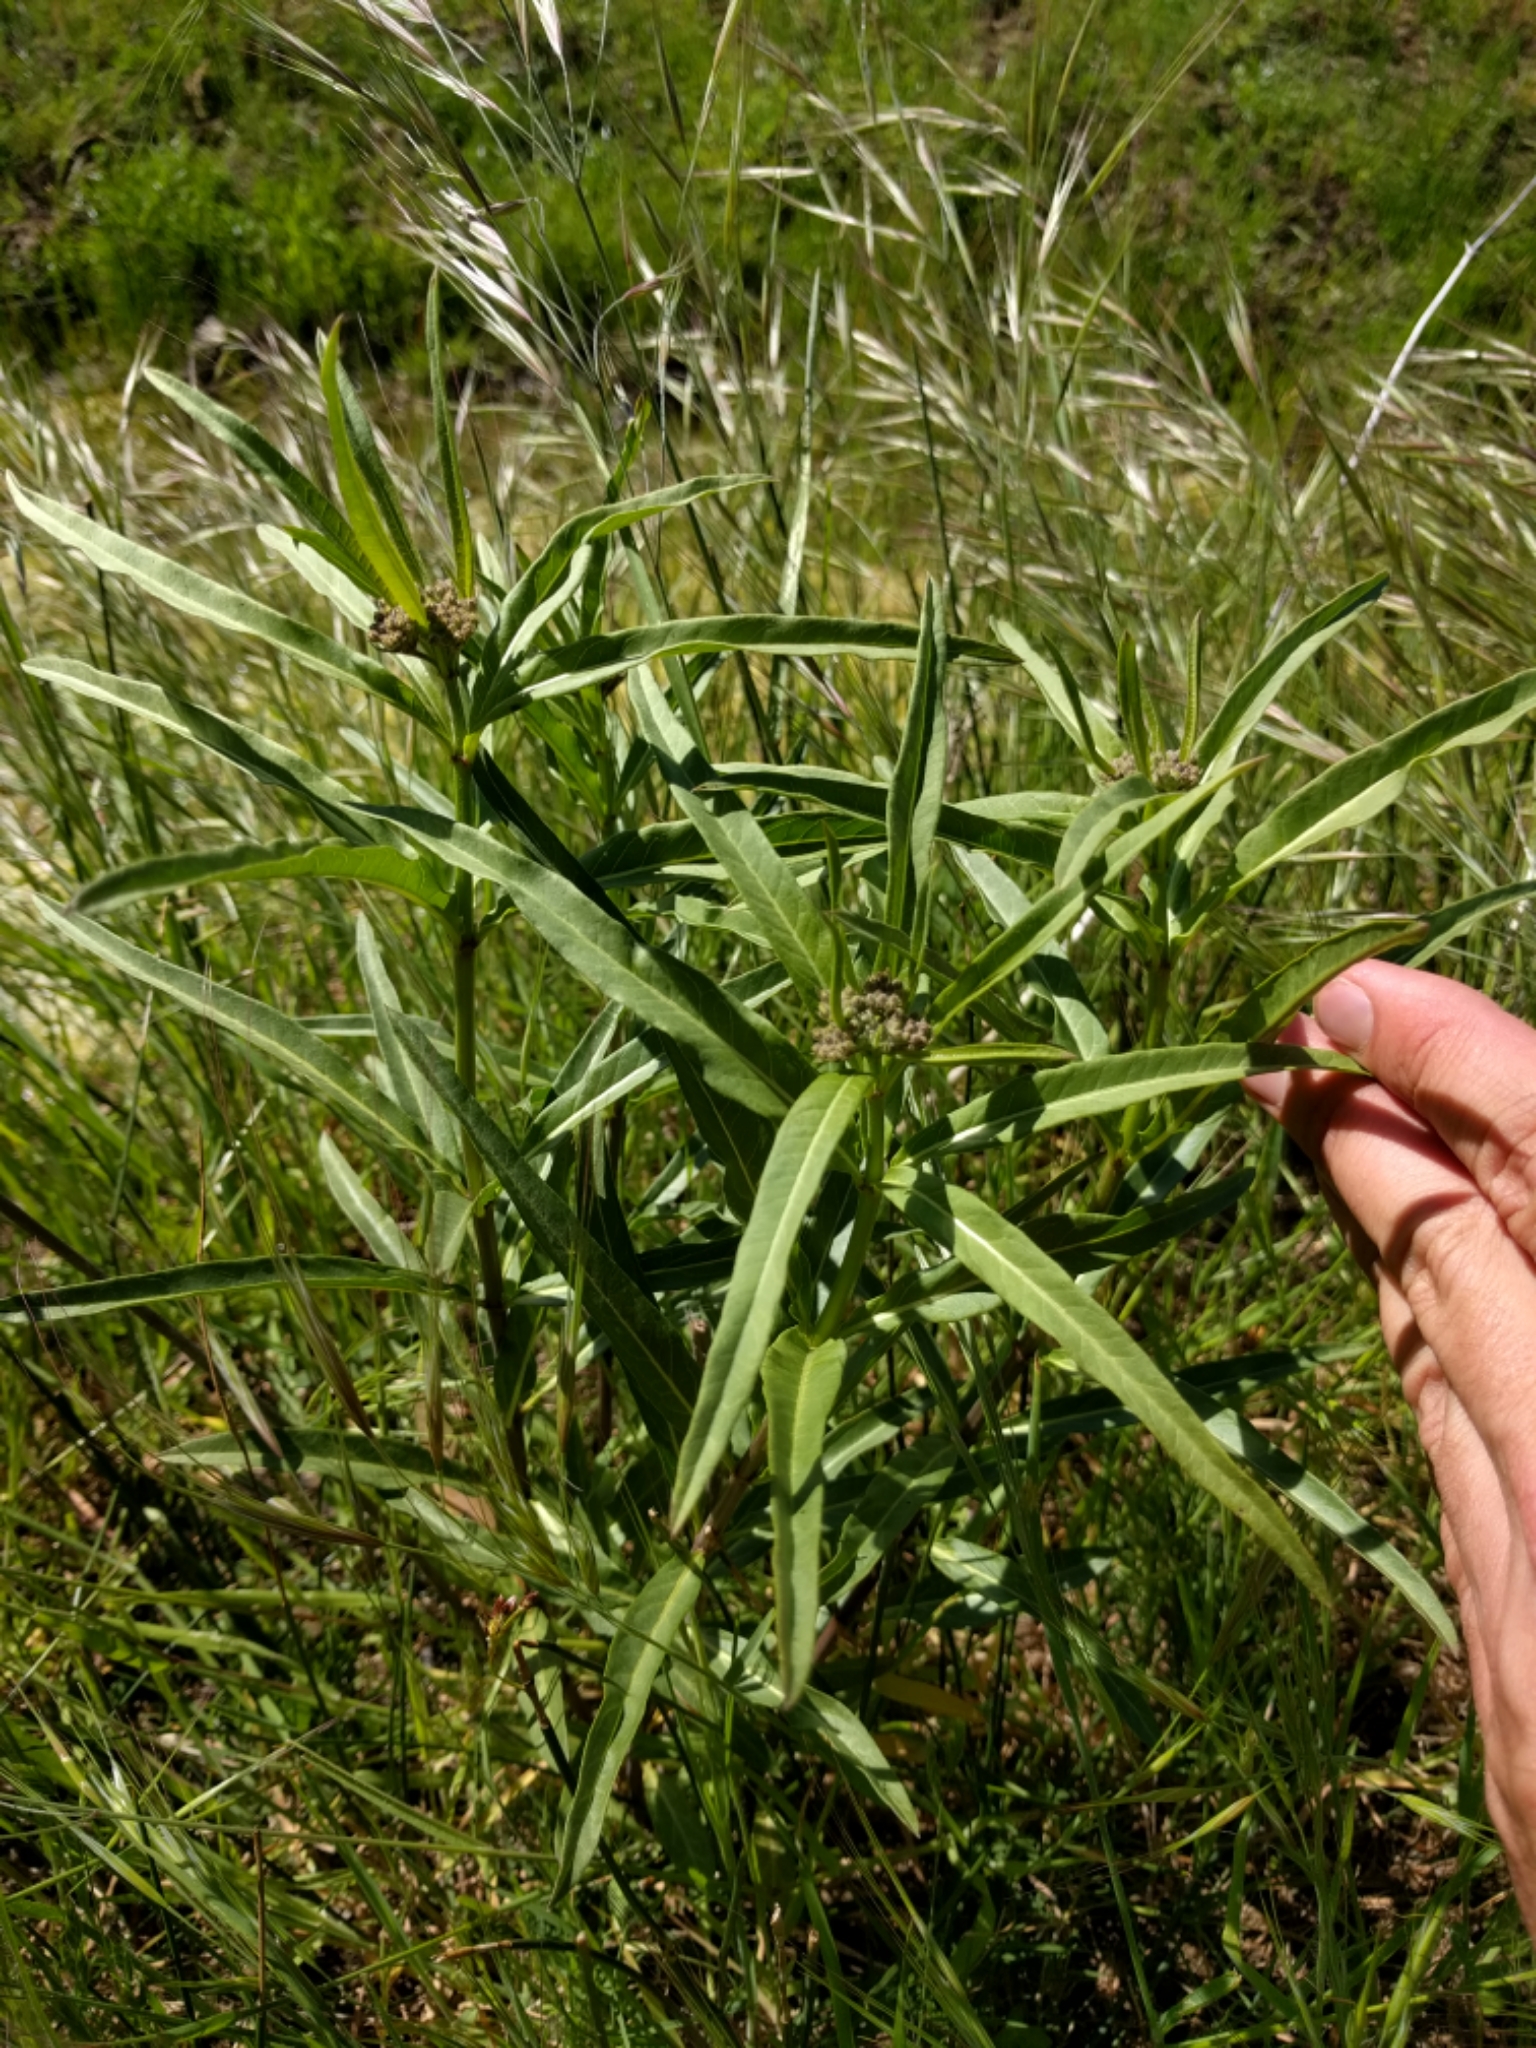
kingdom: Plantae
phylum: Tracheophyta
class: Magnoliopsida
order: Gentianales
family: Apocynaceae
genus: Asclepias
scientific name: Asclepias fascicularis
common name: Mexican milkweed
